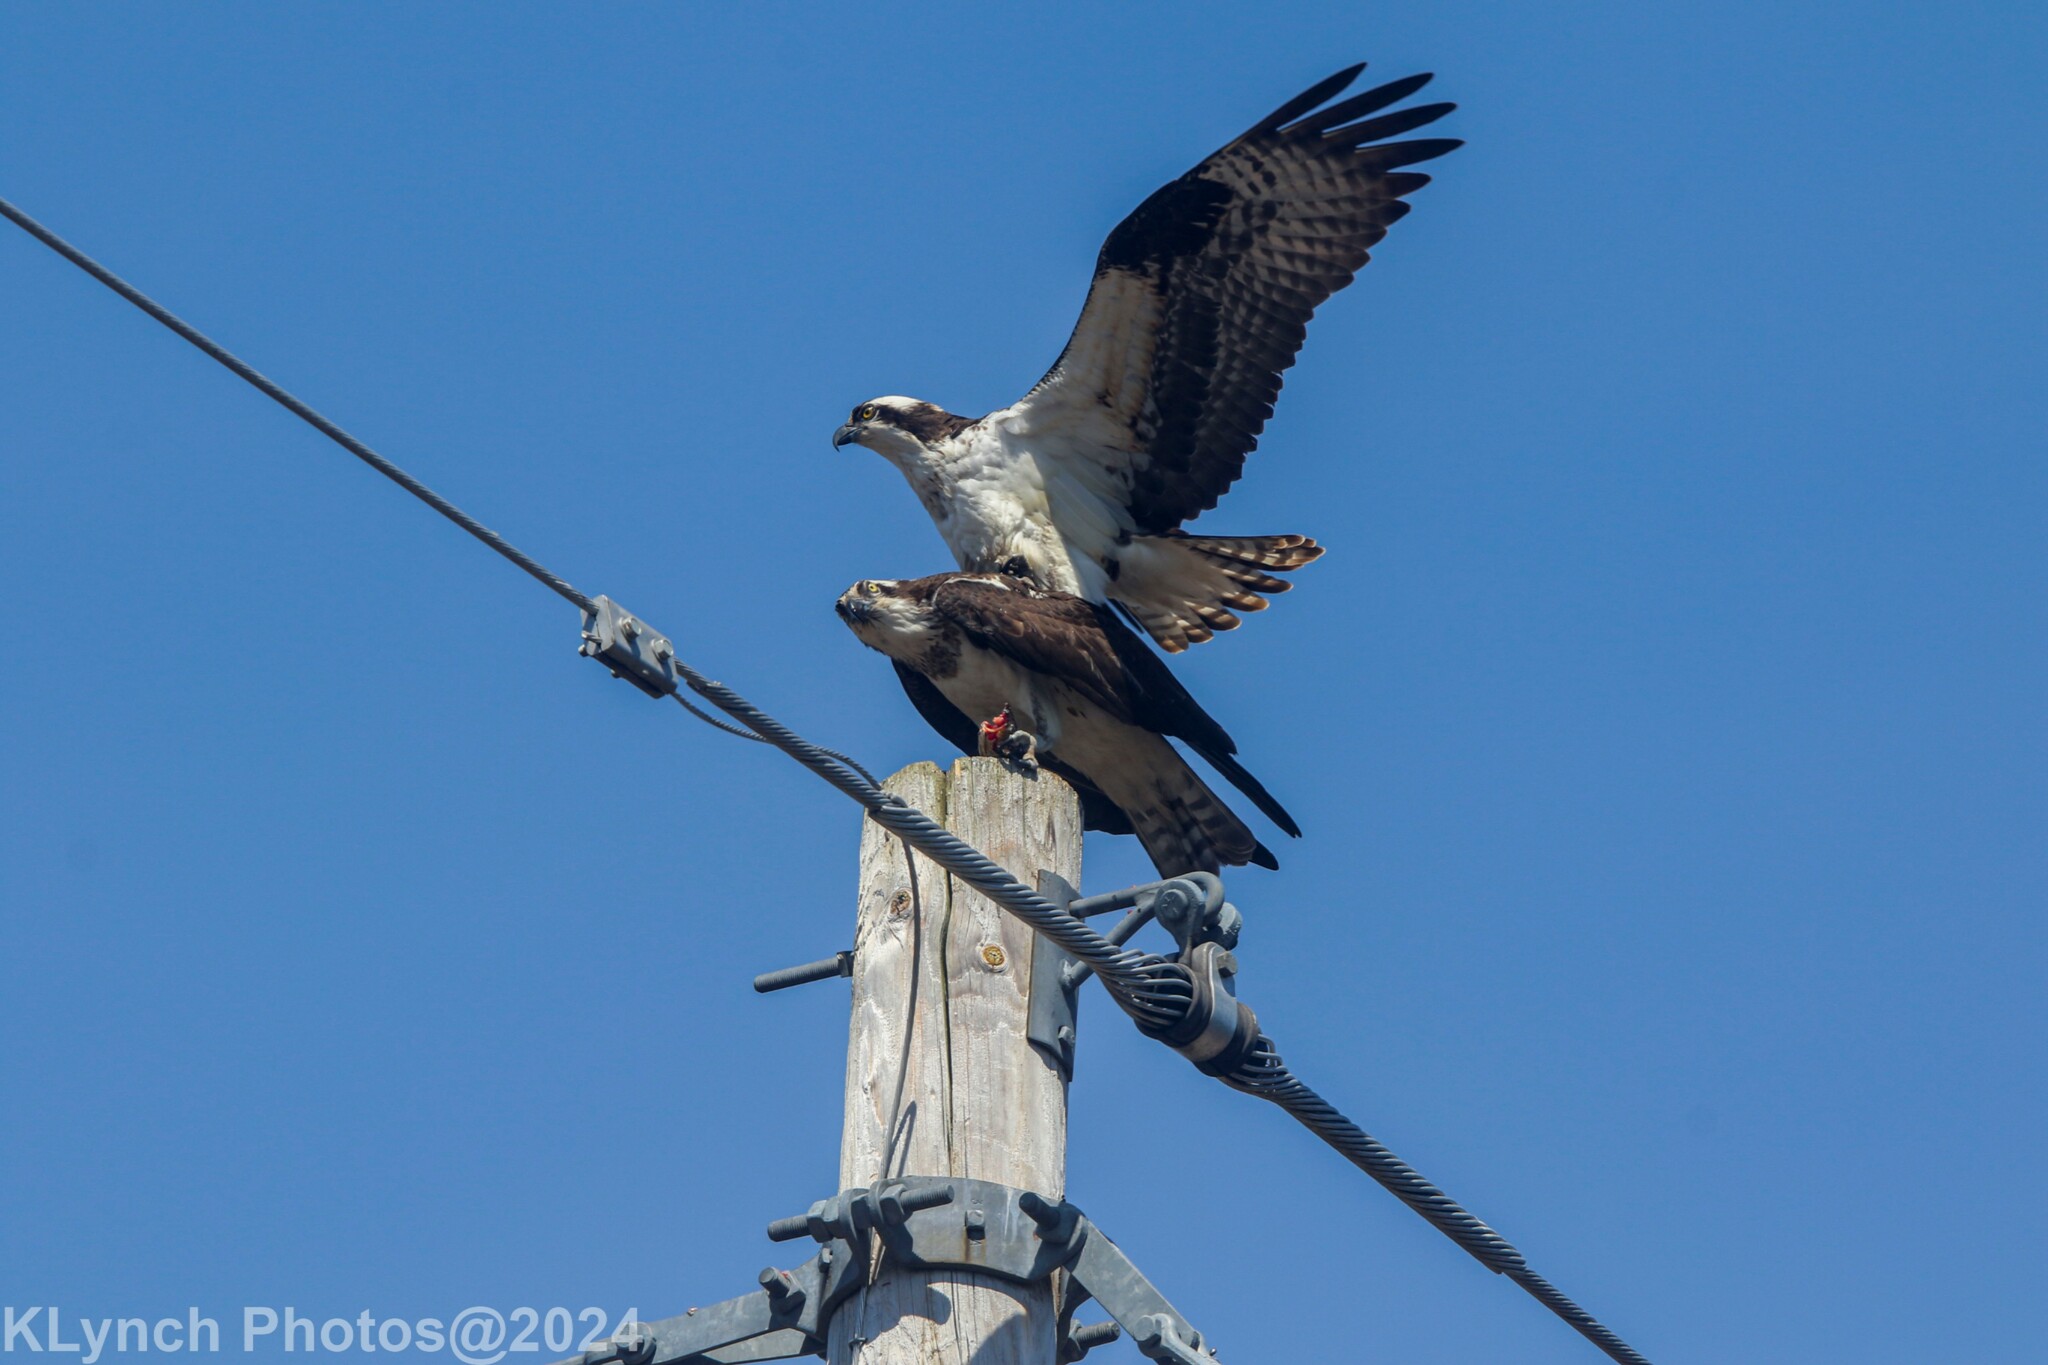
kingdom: Animalia
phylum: Chordata
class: Aves
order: Accipitriformes
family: Pandionidae
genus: Pandion
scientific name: Pandion haliaetus
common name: Osprey
